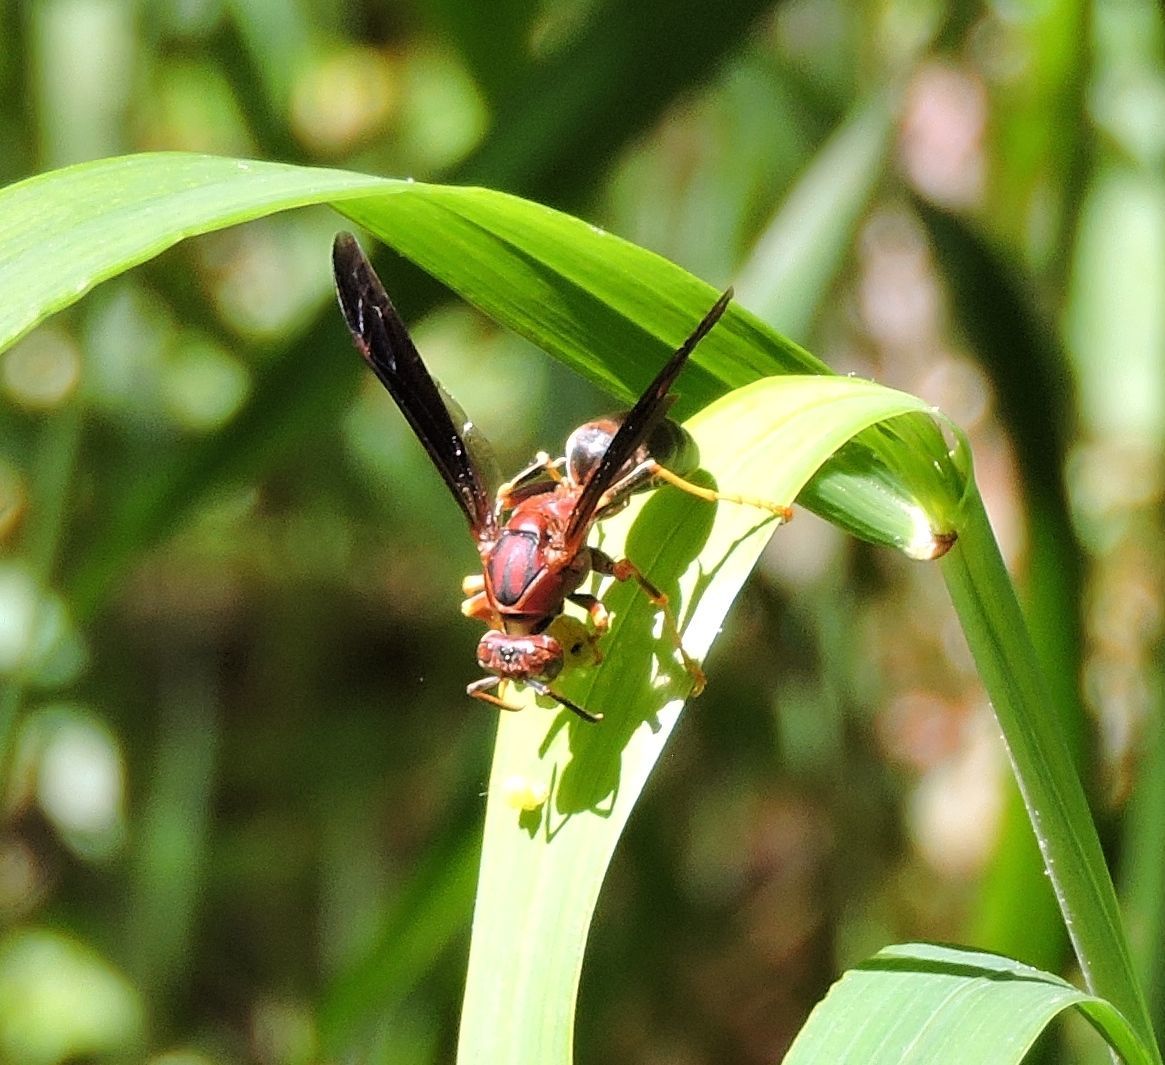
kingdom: Animalia
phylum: Arthropoda
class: Insecta
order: Hymenoptera
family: Eumenidae
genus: Polistes
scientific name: Polistes metricus
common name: Metric paper wasp
